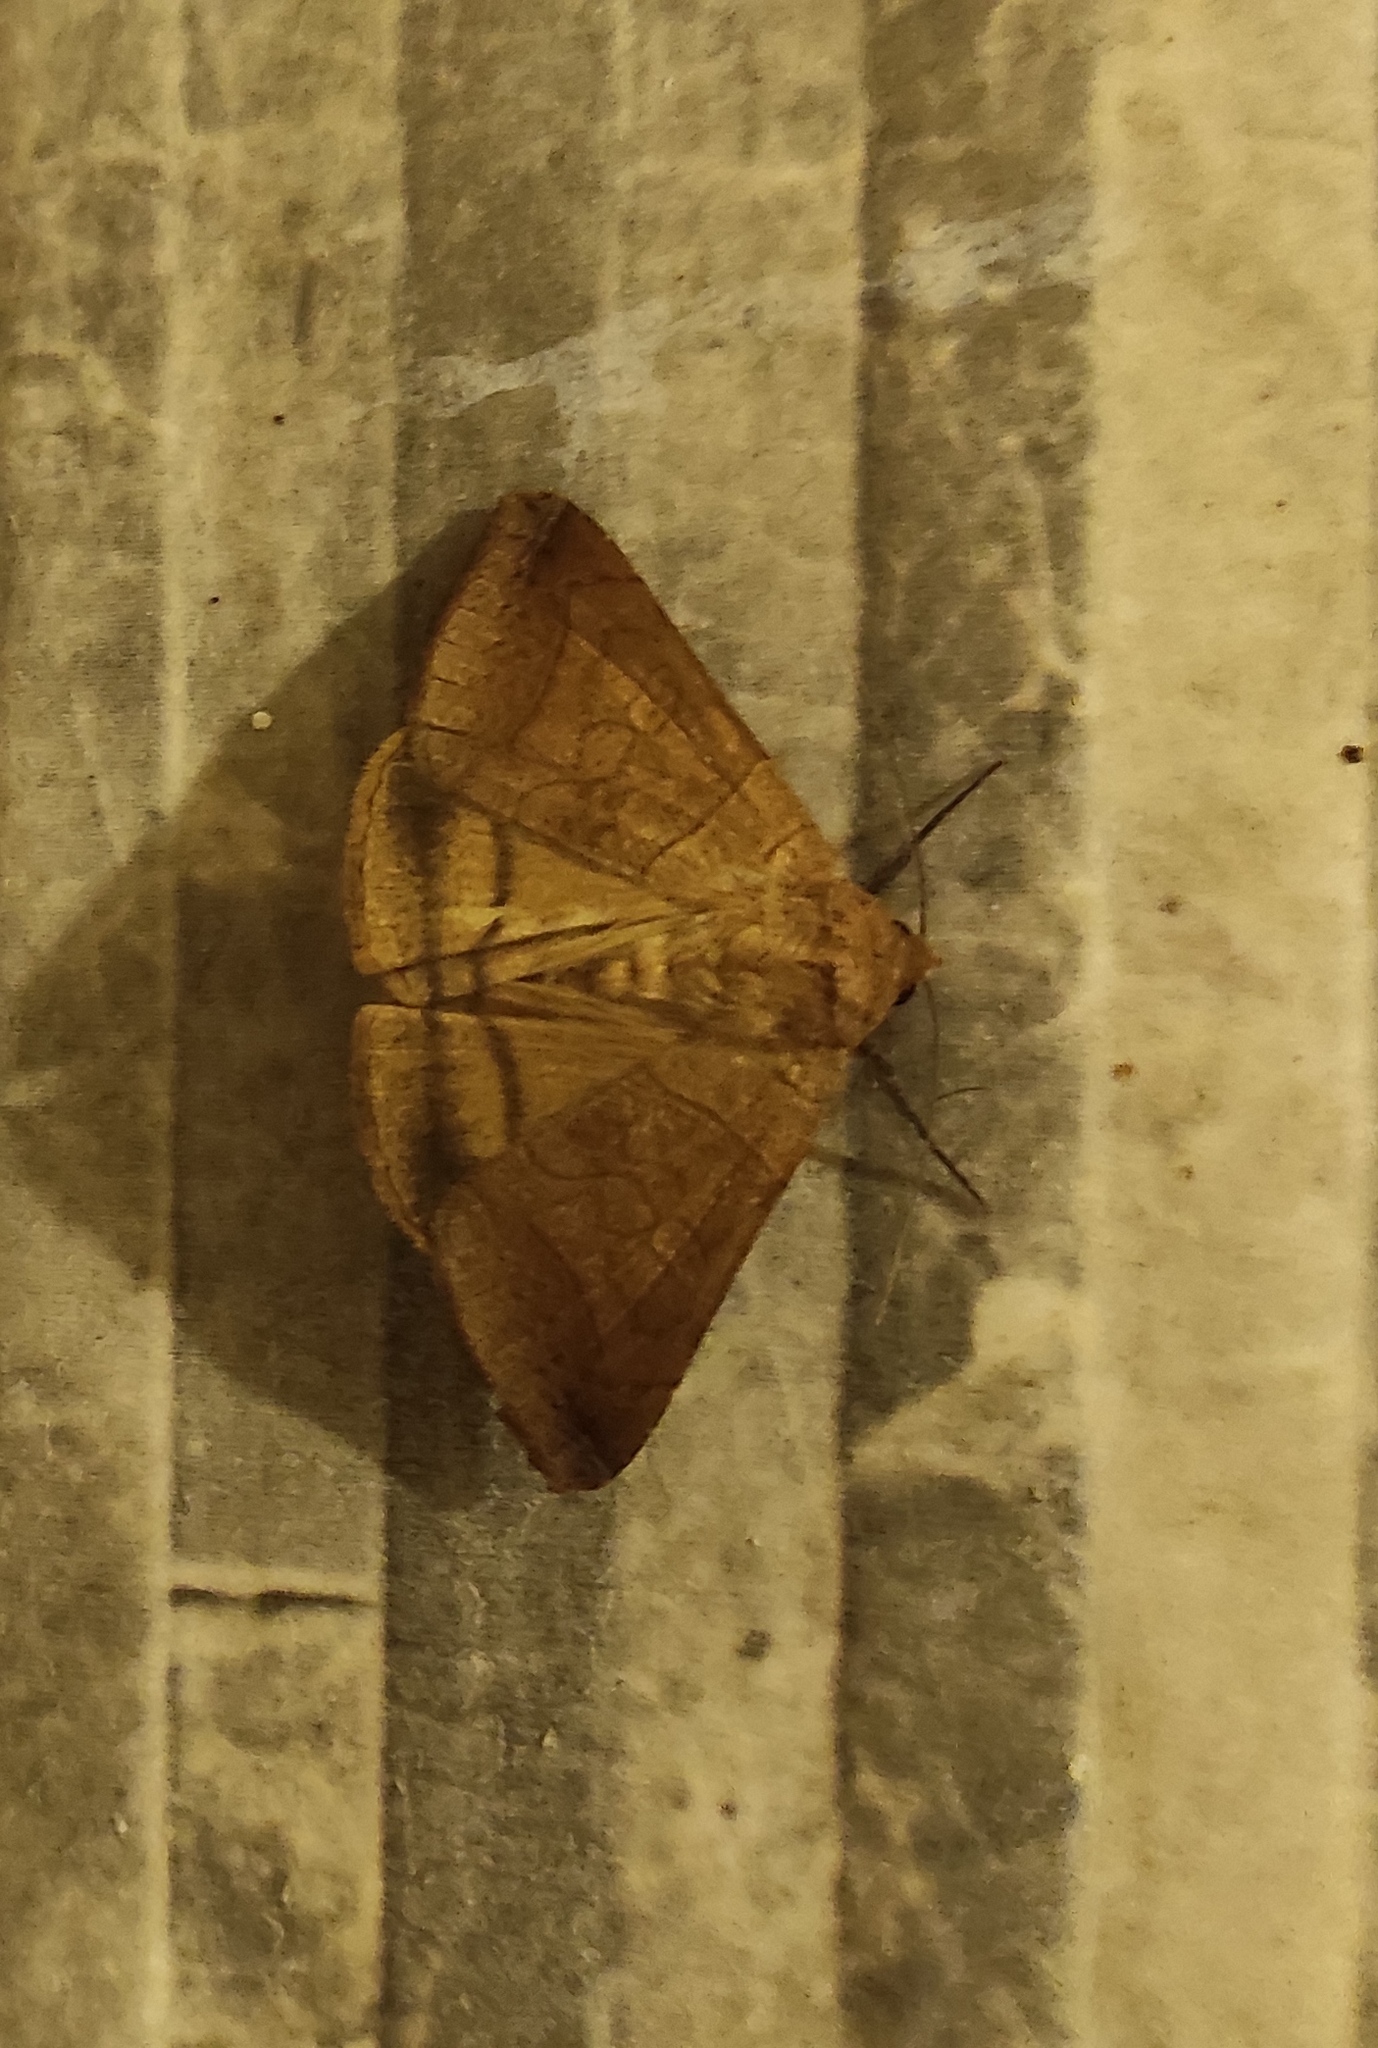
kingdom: Animalia
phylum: Arthropoda
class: Insecta
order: Lepidoptera
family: Erebidae
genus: Mocis
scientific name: Mocis cubana
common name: Cutworm moth
